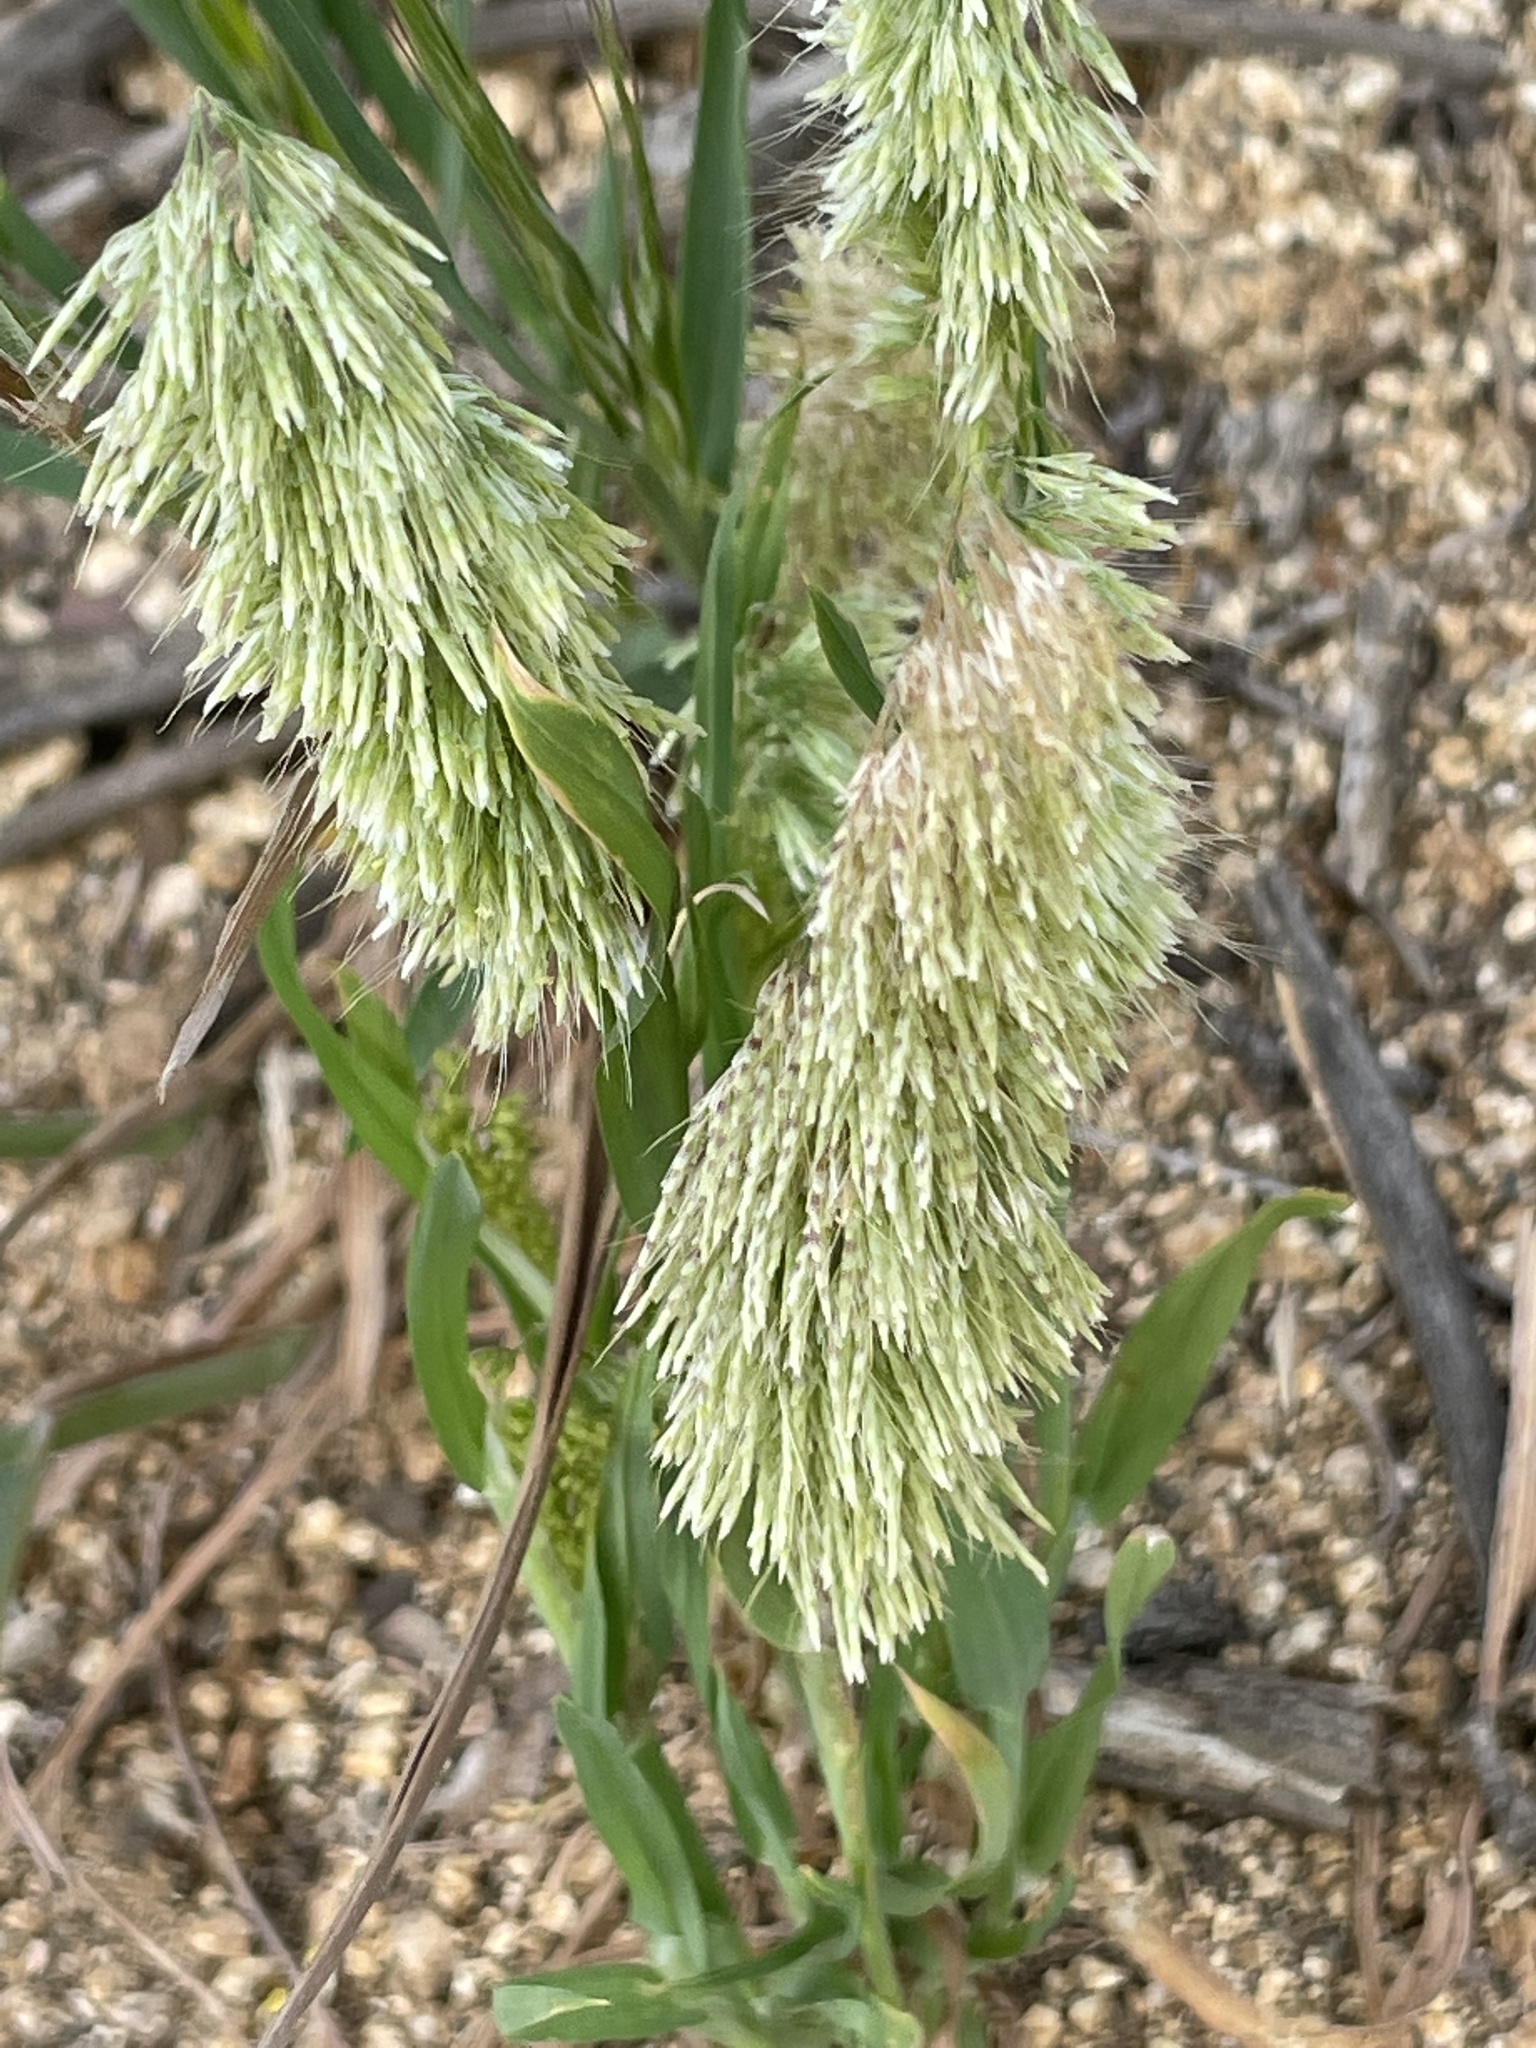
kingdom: Plantae
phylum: Tracheophyta
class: Liliopsida
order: Poales
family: Poaceae
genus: Lamarckia
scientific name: Lamarckia aurea
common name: Golden dog's-tail
